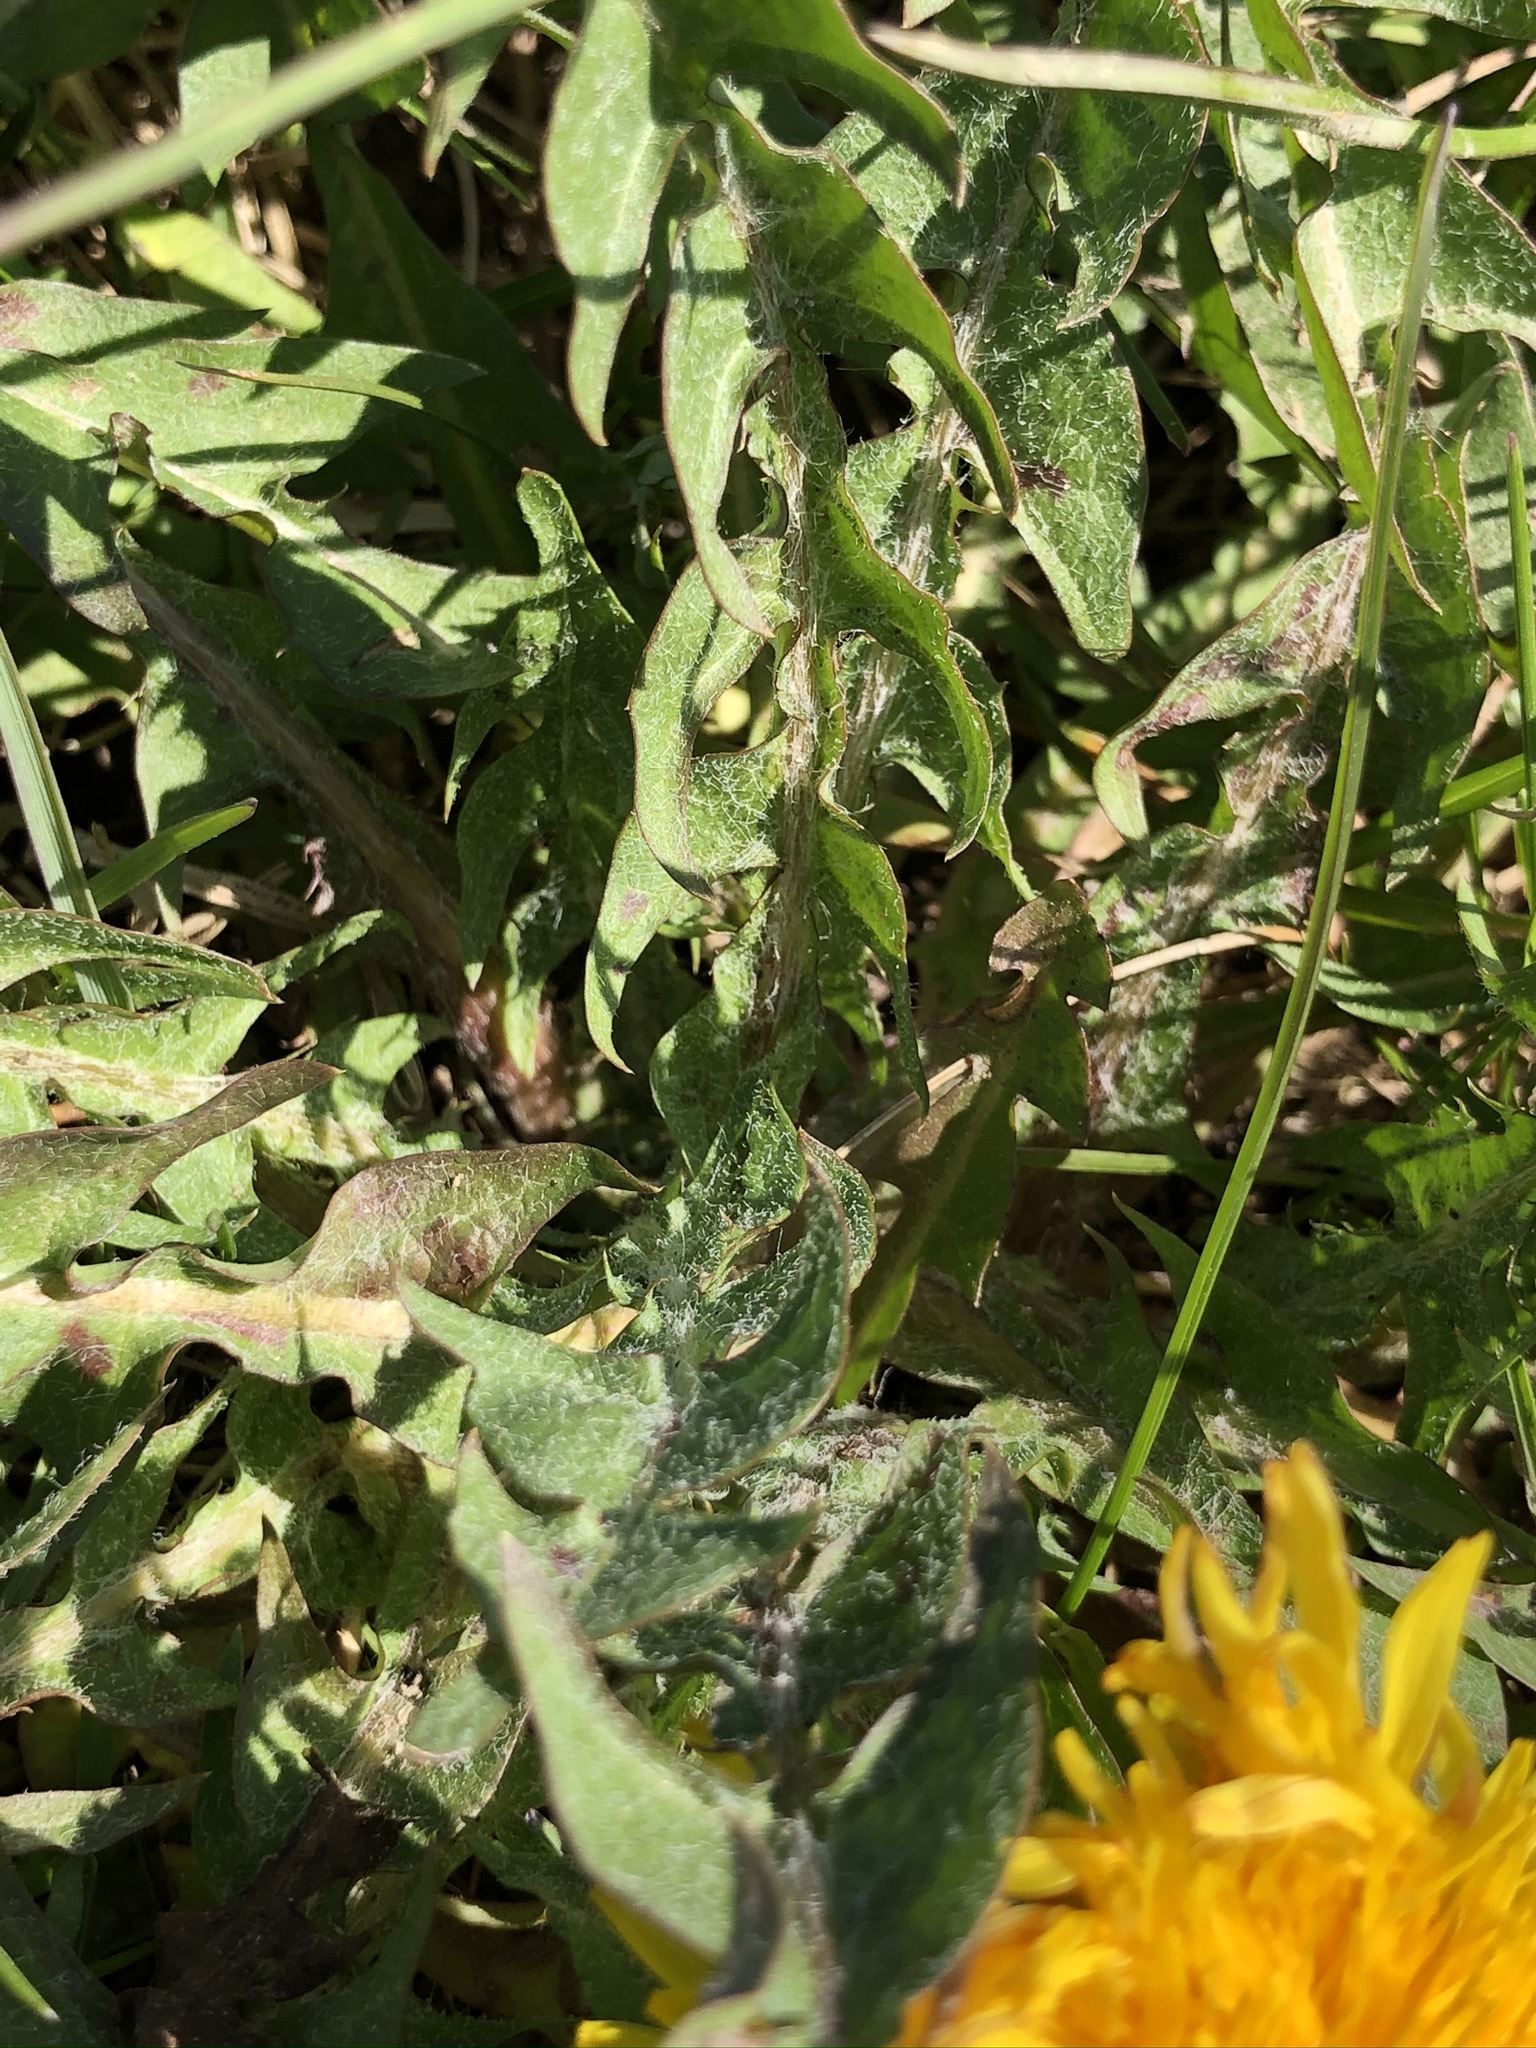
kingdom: Plantae
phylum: Tracheophyta
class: Magnoliopsida
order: Asterales
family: Asteraceae
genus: Taraxacum
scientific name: Taraxacum officinale
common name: Common dandelion
